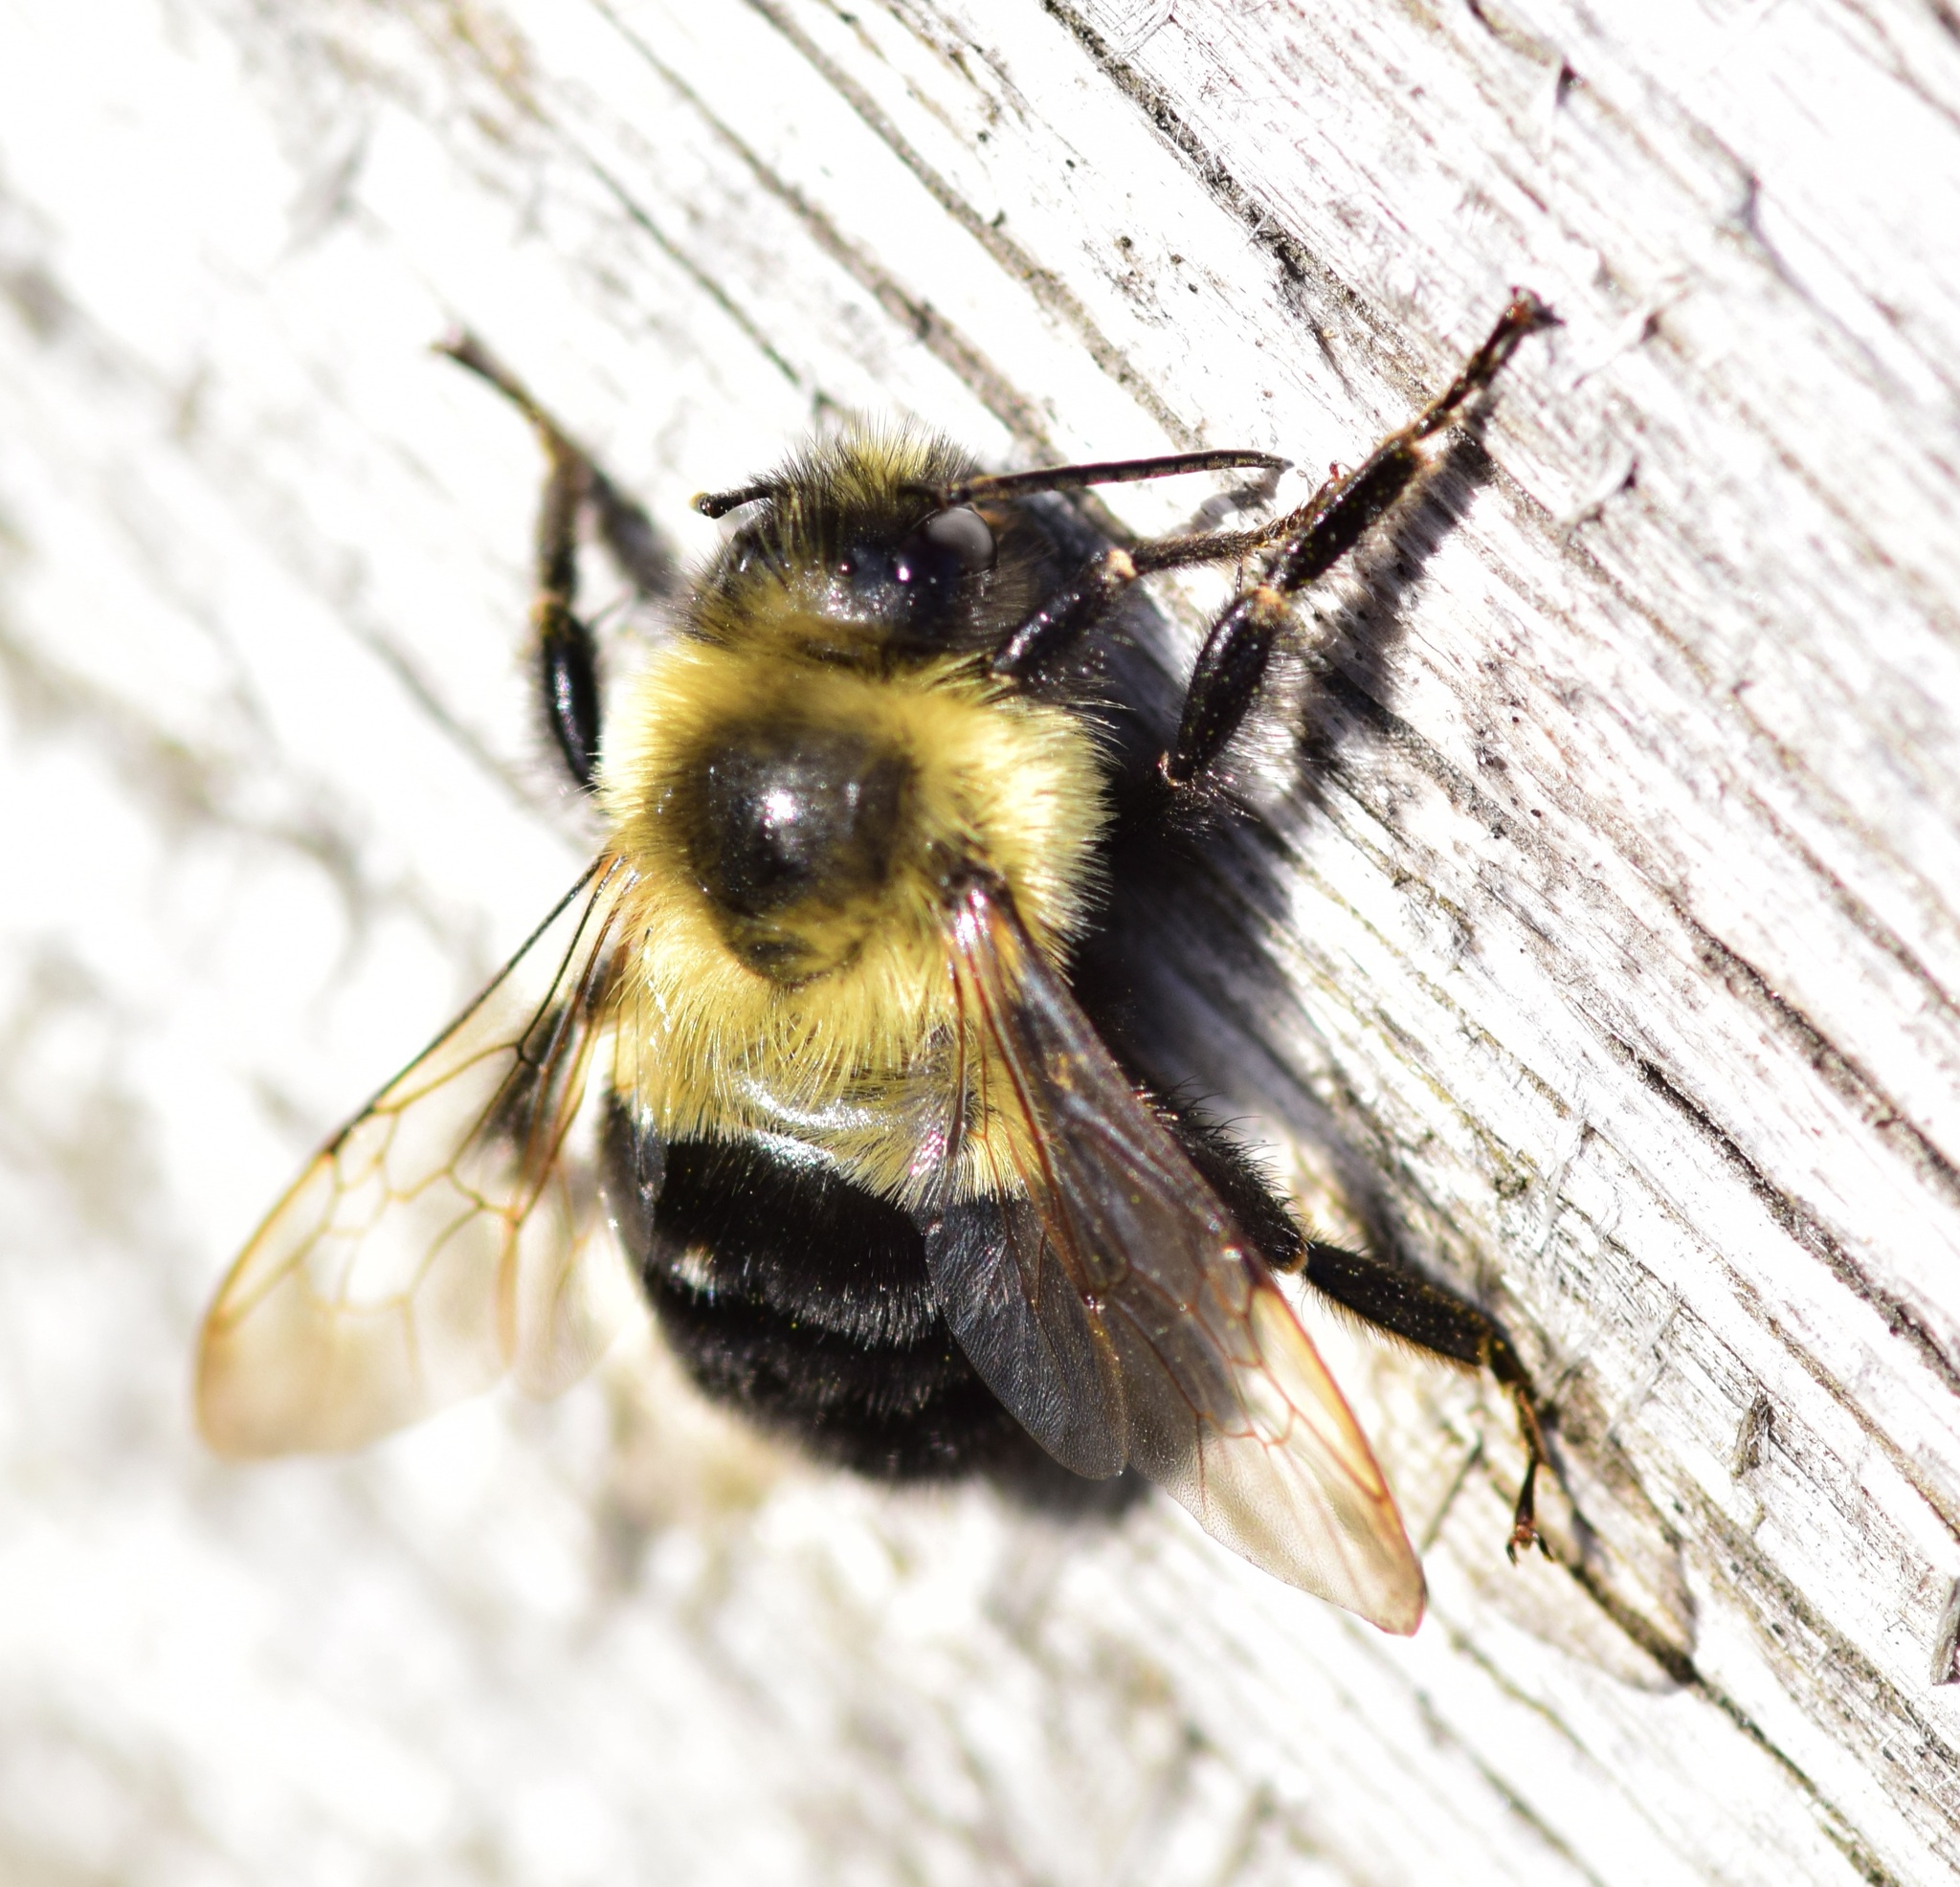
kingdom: Animalia
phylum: Arthropoda
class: Insecta
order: Hymenoptera
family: Apidae
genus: Bombus
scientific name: Bombus impatiens
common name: Common eastern bumble bee
